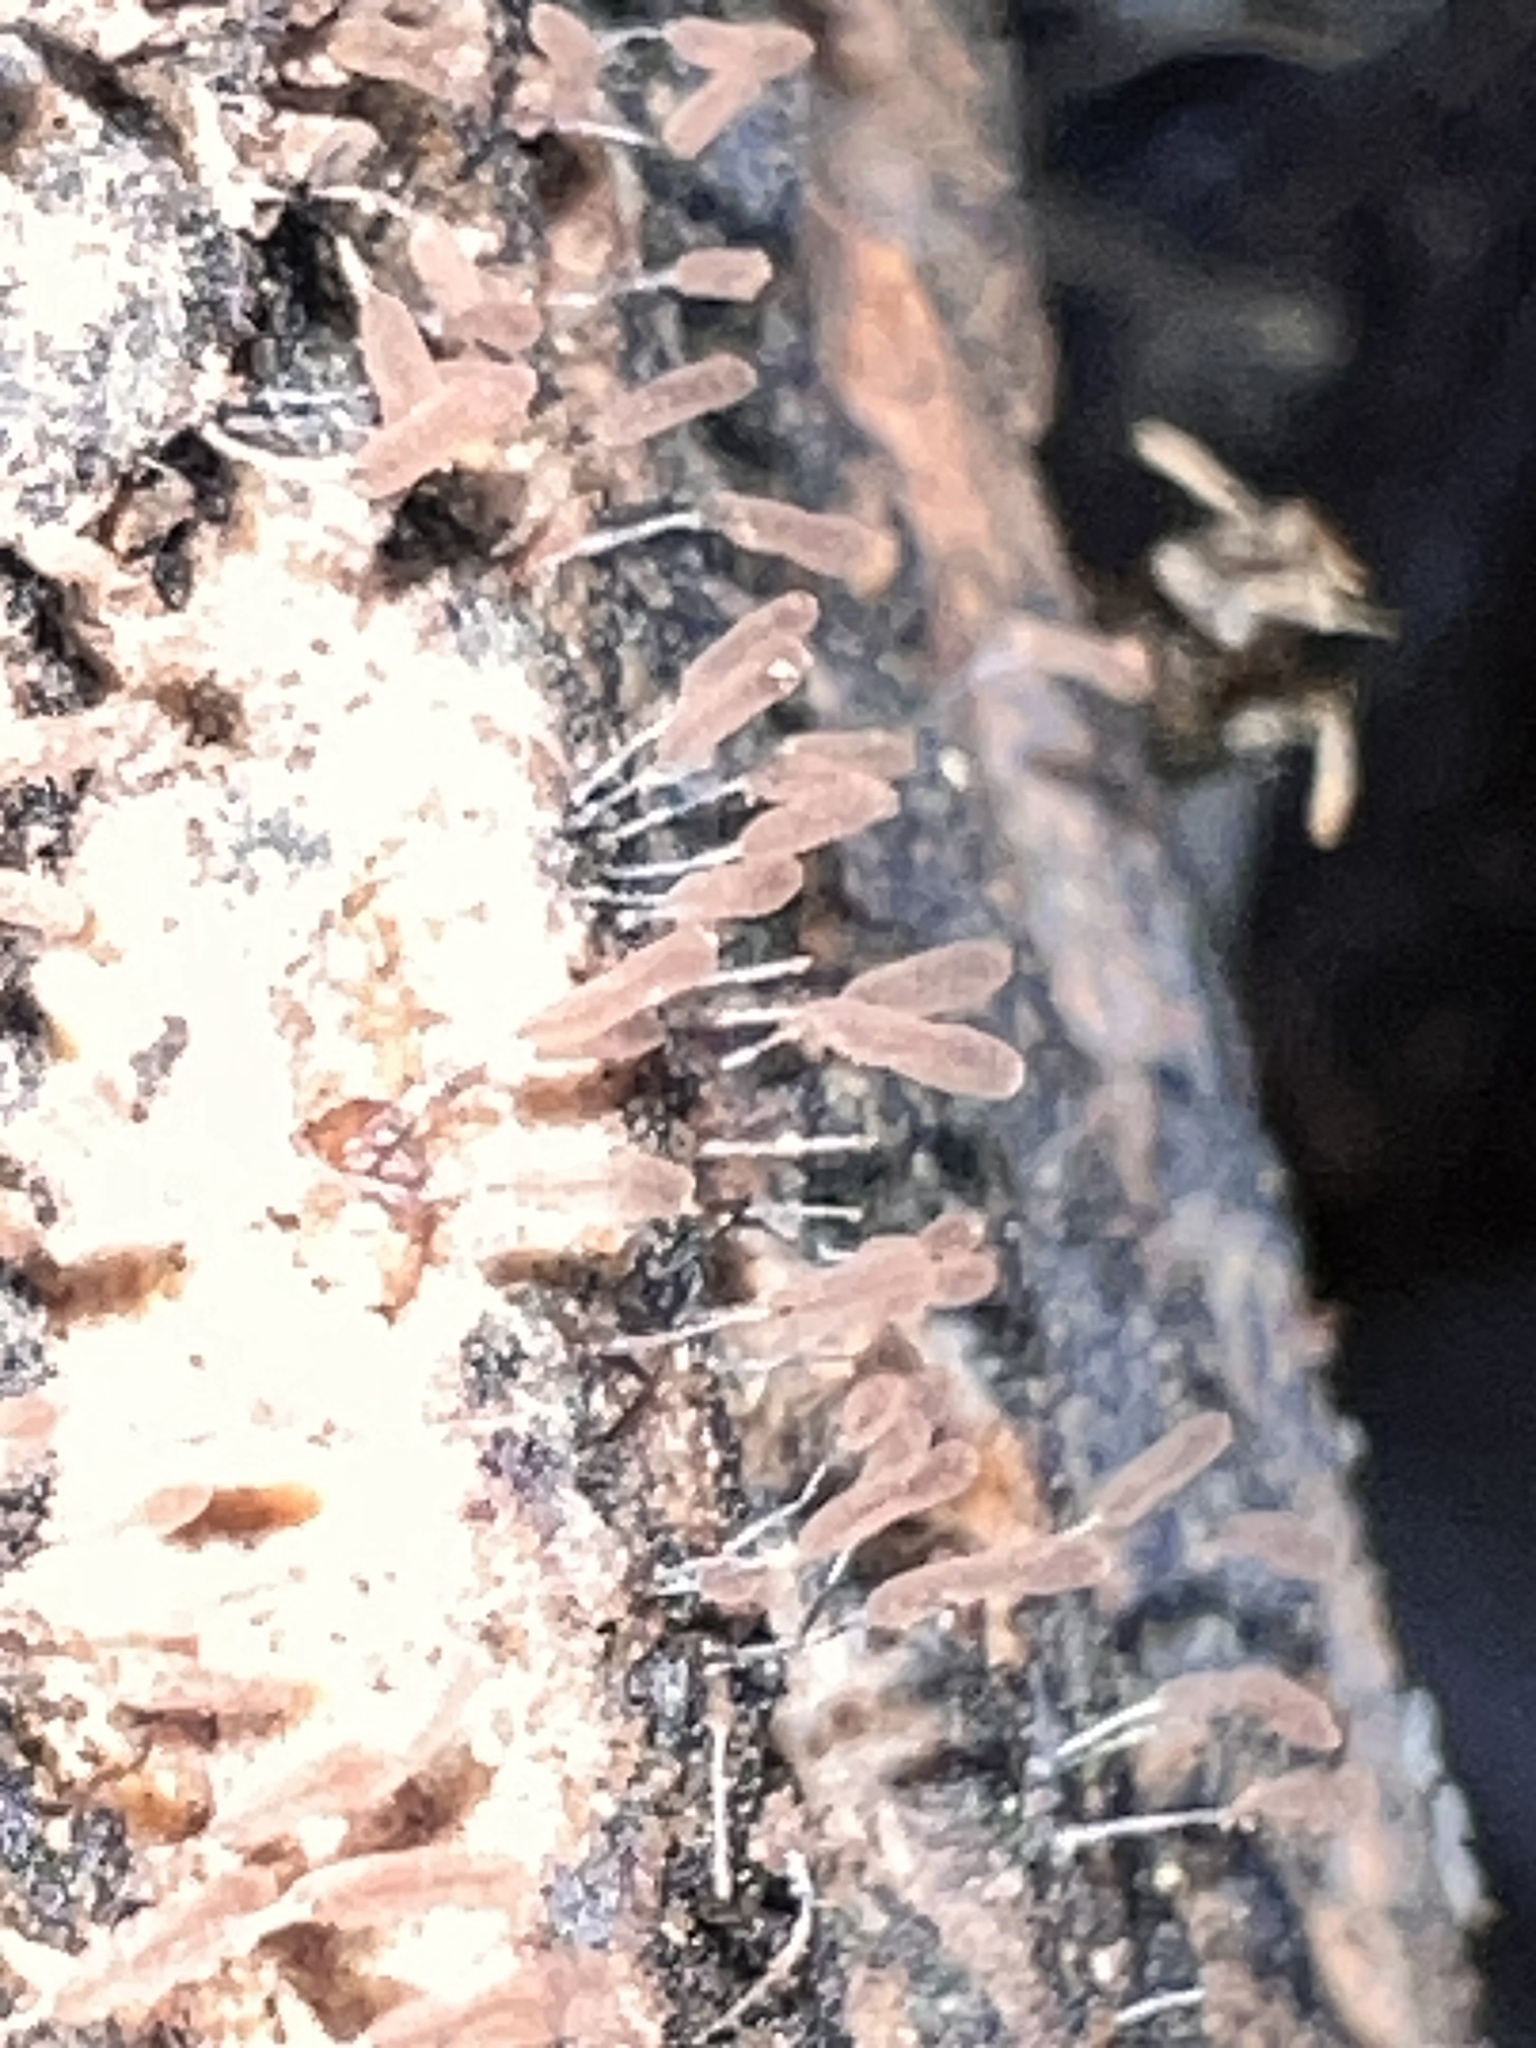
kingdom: Protozoa
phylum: Mycetozoa
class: Myxomycetes
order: Stemonitidales
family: Stemonitidaceae
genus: Stemonitopsis
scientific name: Stemonitopsis typhina
